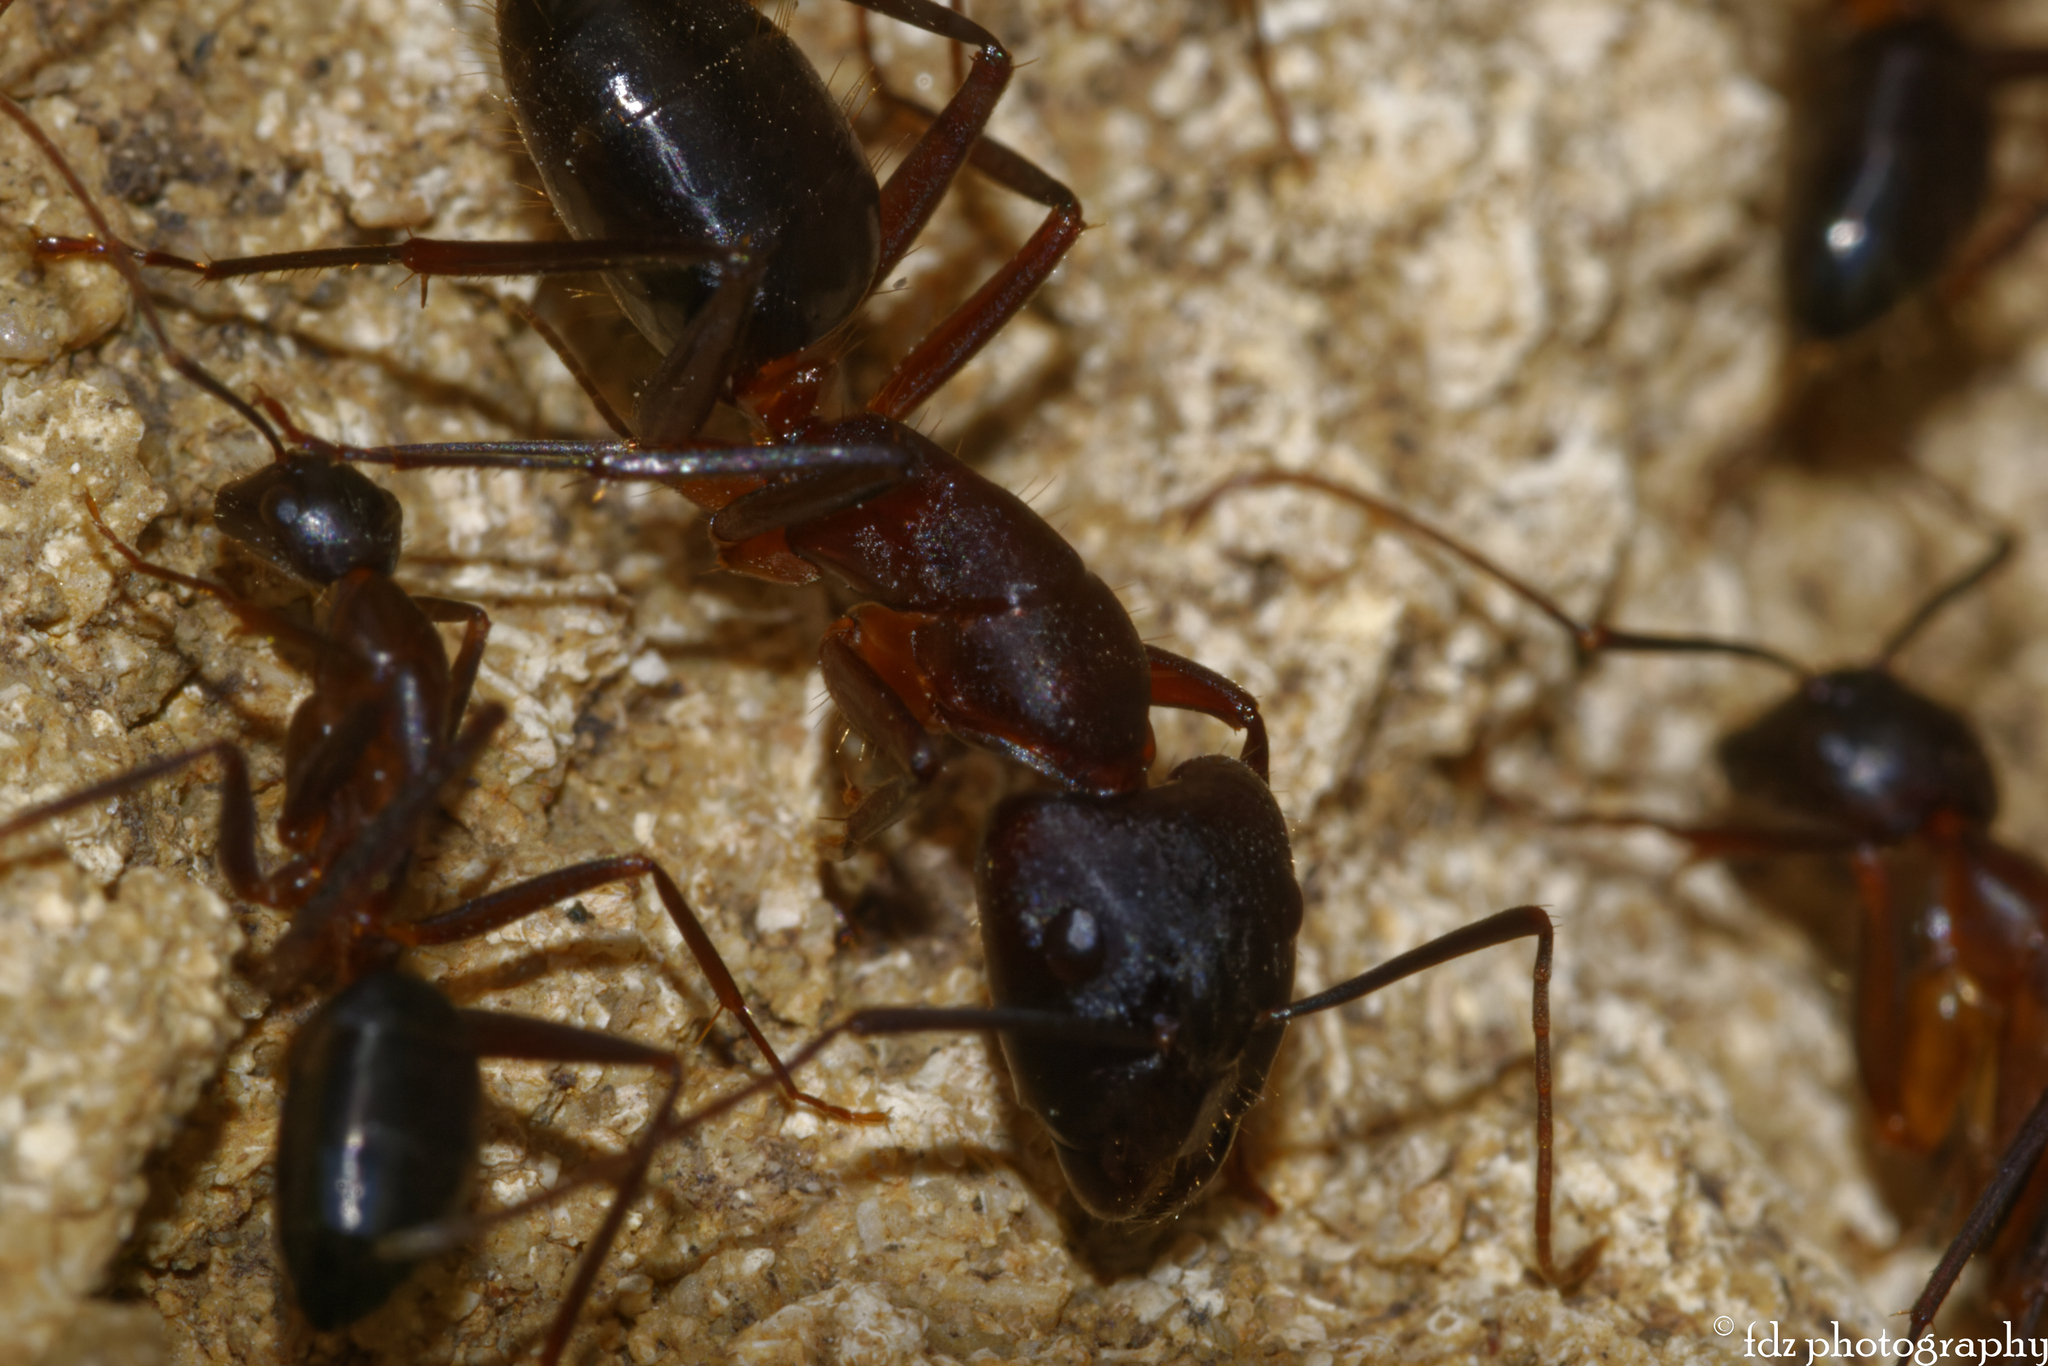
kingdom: Animalia
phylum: Arthropoda
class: Insecta
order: Hymenoptera
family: Formicidae
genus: Camponotus
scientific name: Camponotus barbaricus
